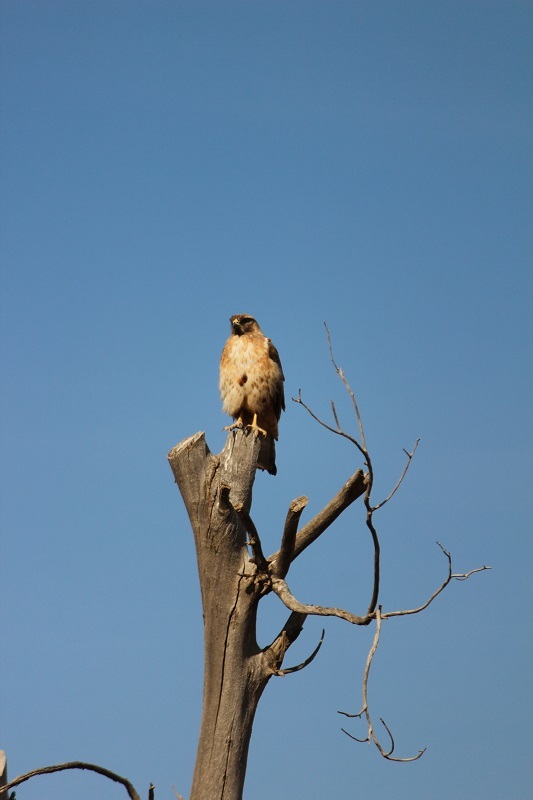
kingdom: Animalia
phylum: Chordata
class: Aves
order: Accipitriformes
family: Accipitridae
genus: Buteo
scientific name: Buteo rufofuscus
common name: Jackal buzzard
